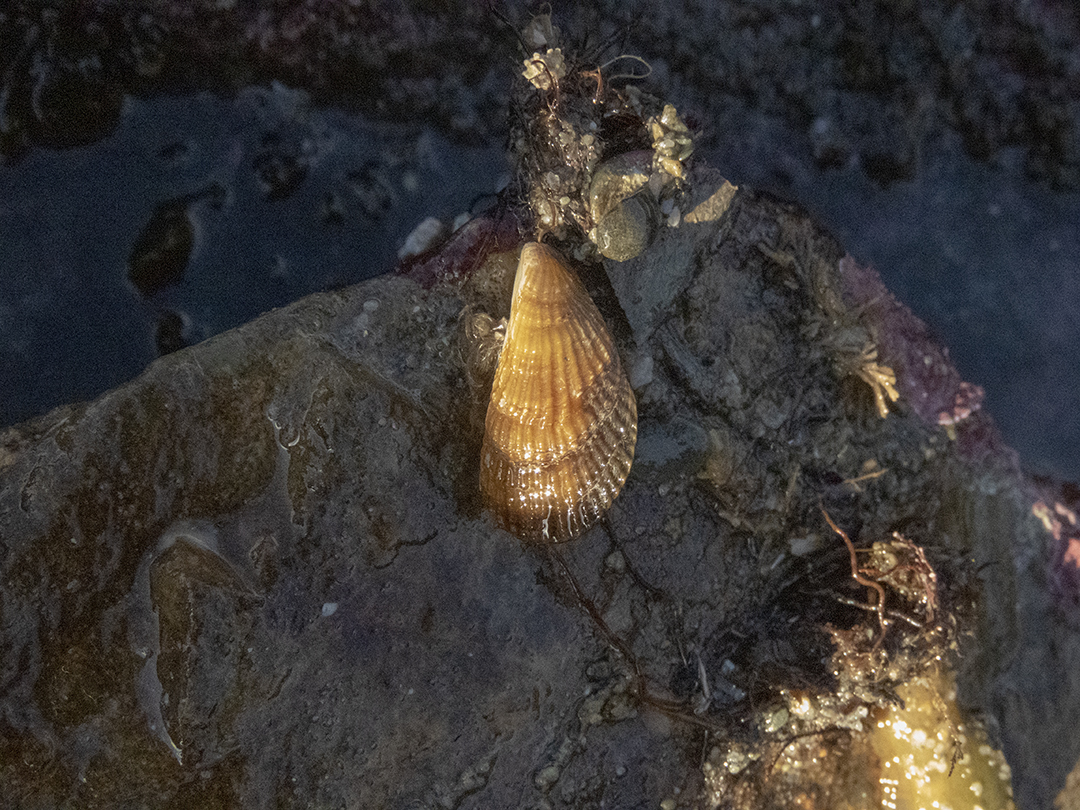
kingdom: Animalia
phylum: Mollusca
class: Bivalvia
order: Mytilida
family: Mytilidae
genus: Aulacomya
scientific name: Aulacomya maoriana
